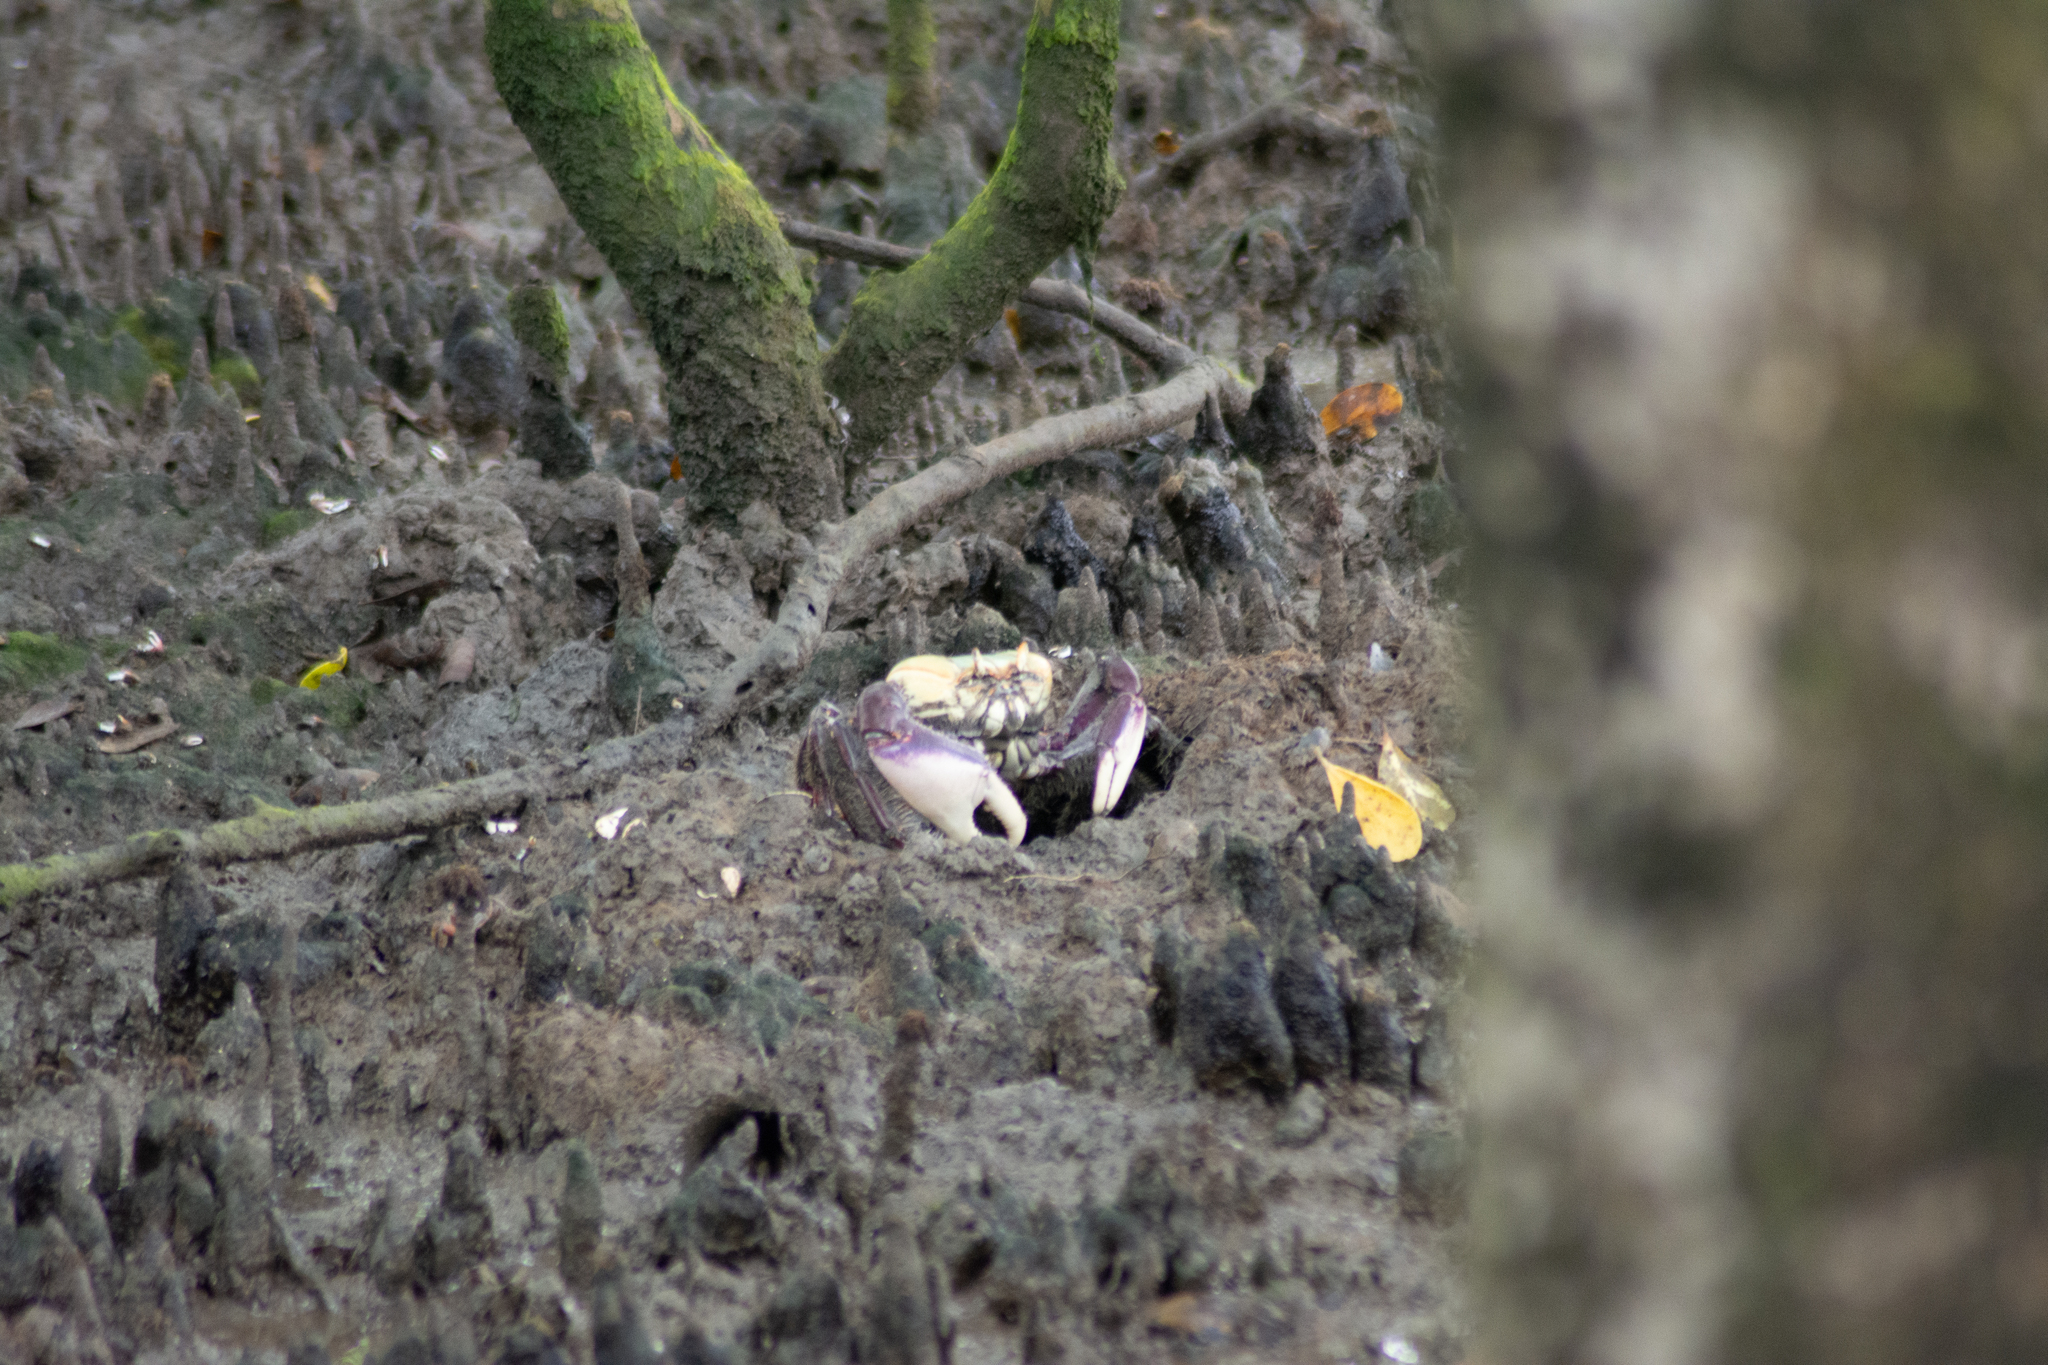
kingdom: Animalia
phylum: Arthropoda
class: Malacostraca
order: Decapoda
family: Ocypodidae
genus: Ucides
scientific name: Ucides cordatus
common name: Swamp ghost crab
